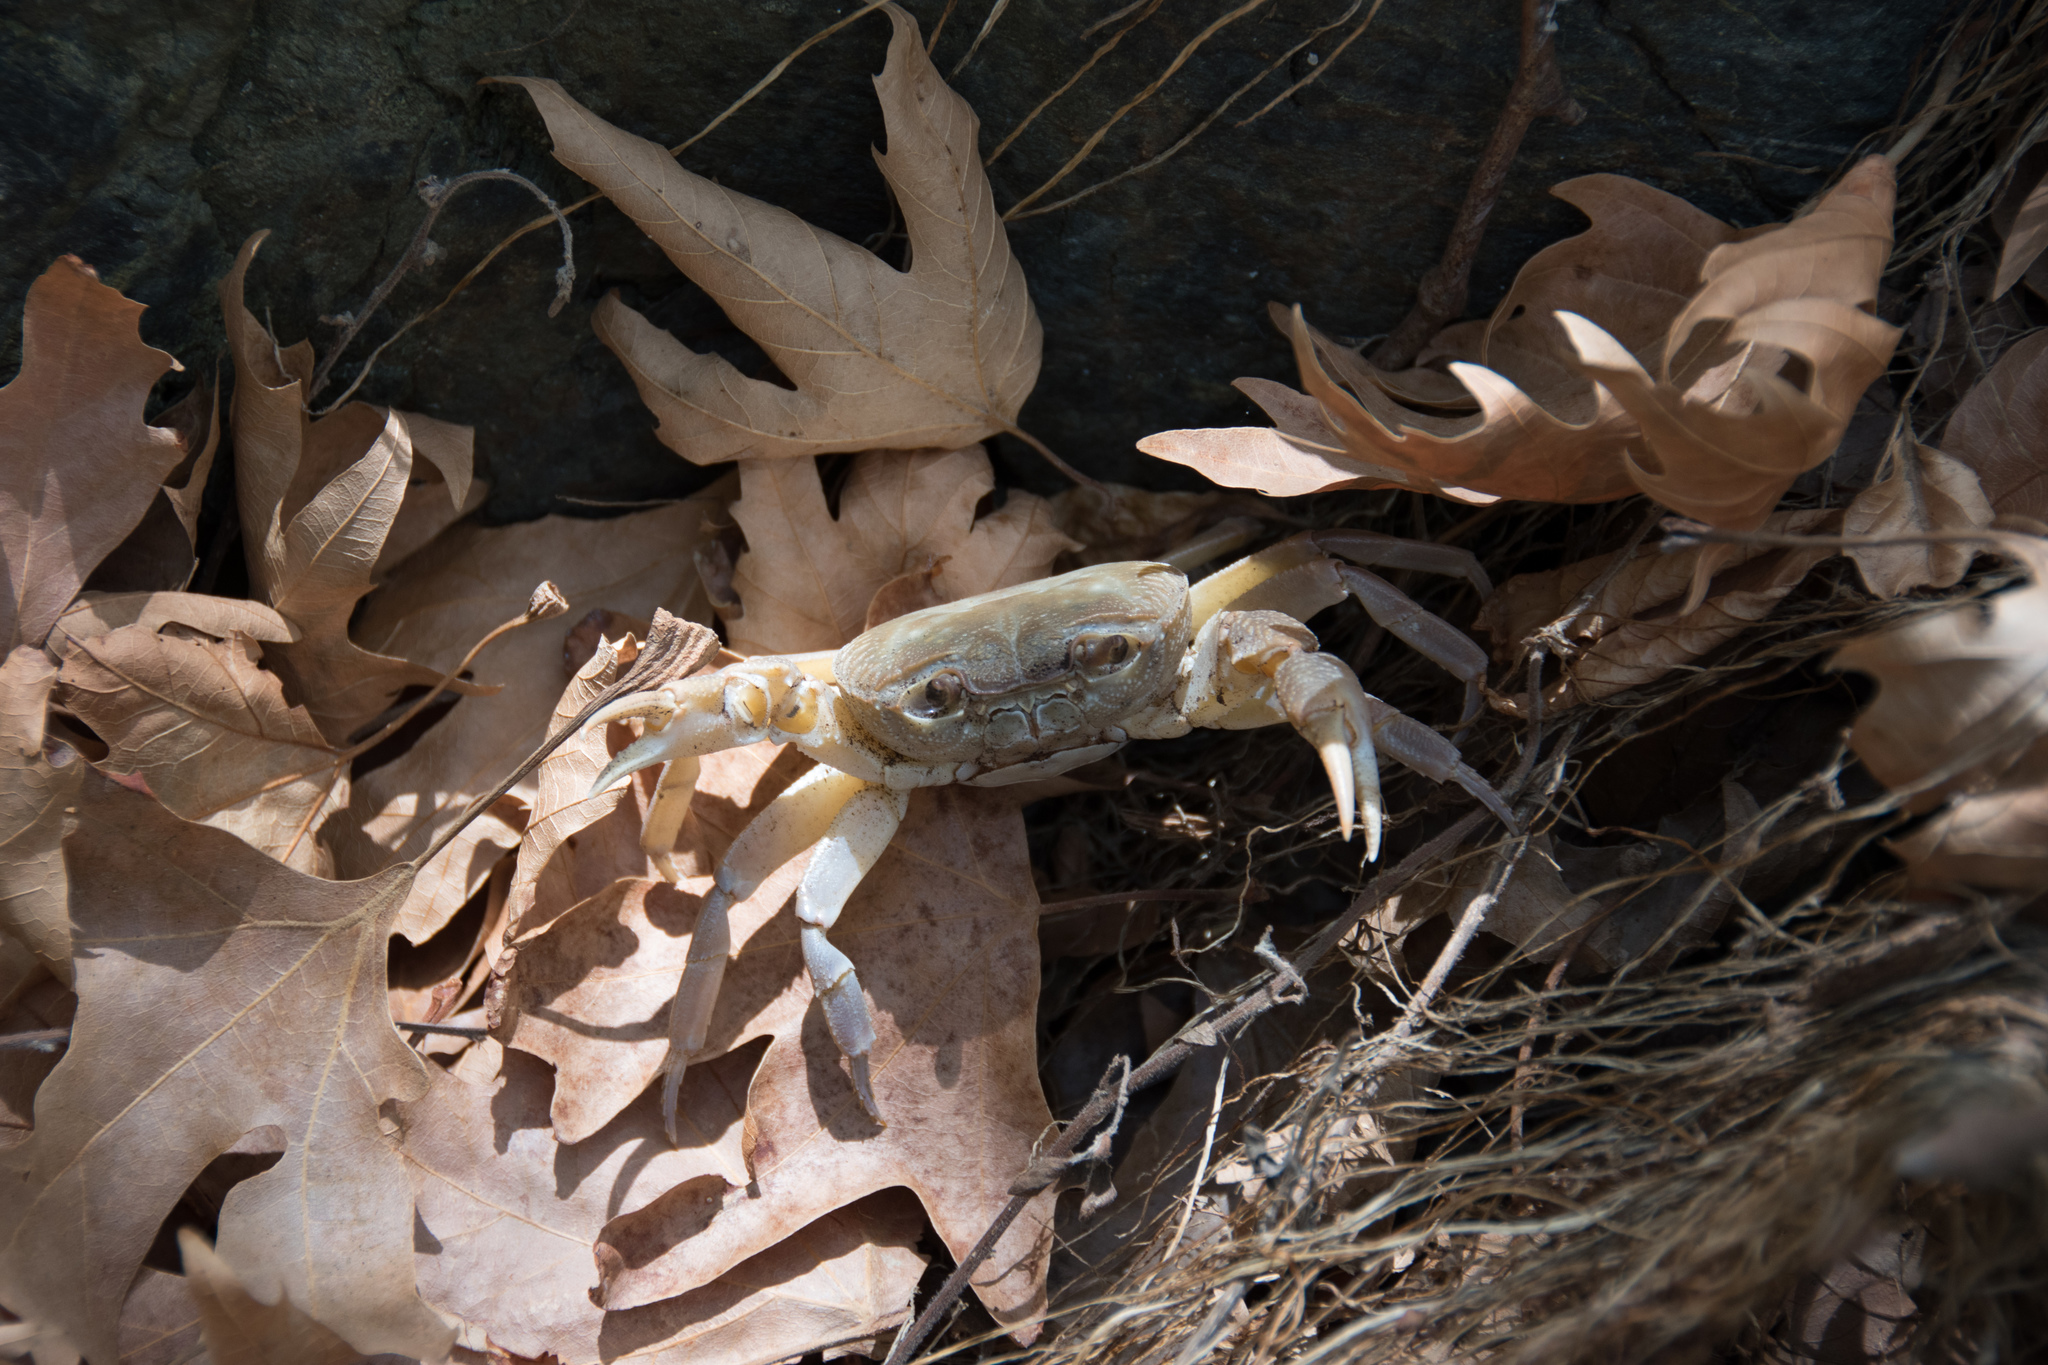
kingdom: Animalia
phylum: Arthropoda
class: Malacostraca
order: Decapoda
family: Potamidae
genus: Potamon
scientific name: Potamon hippocratis
